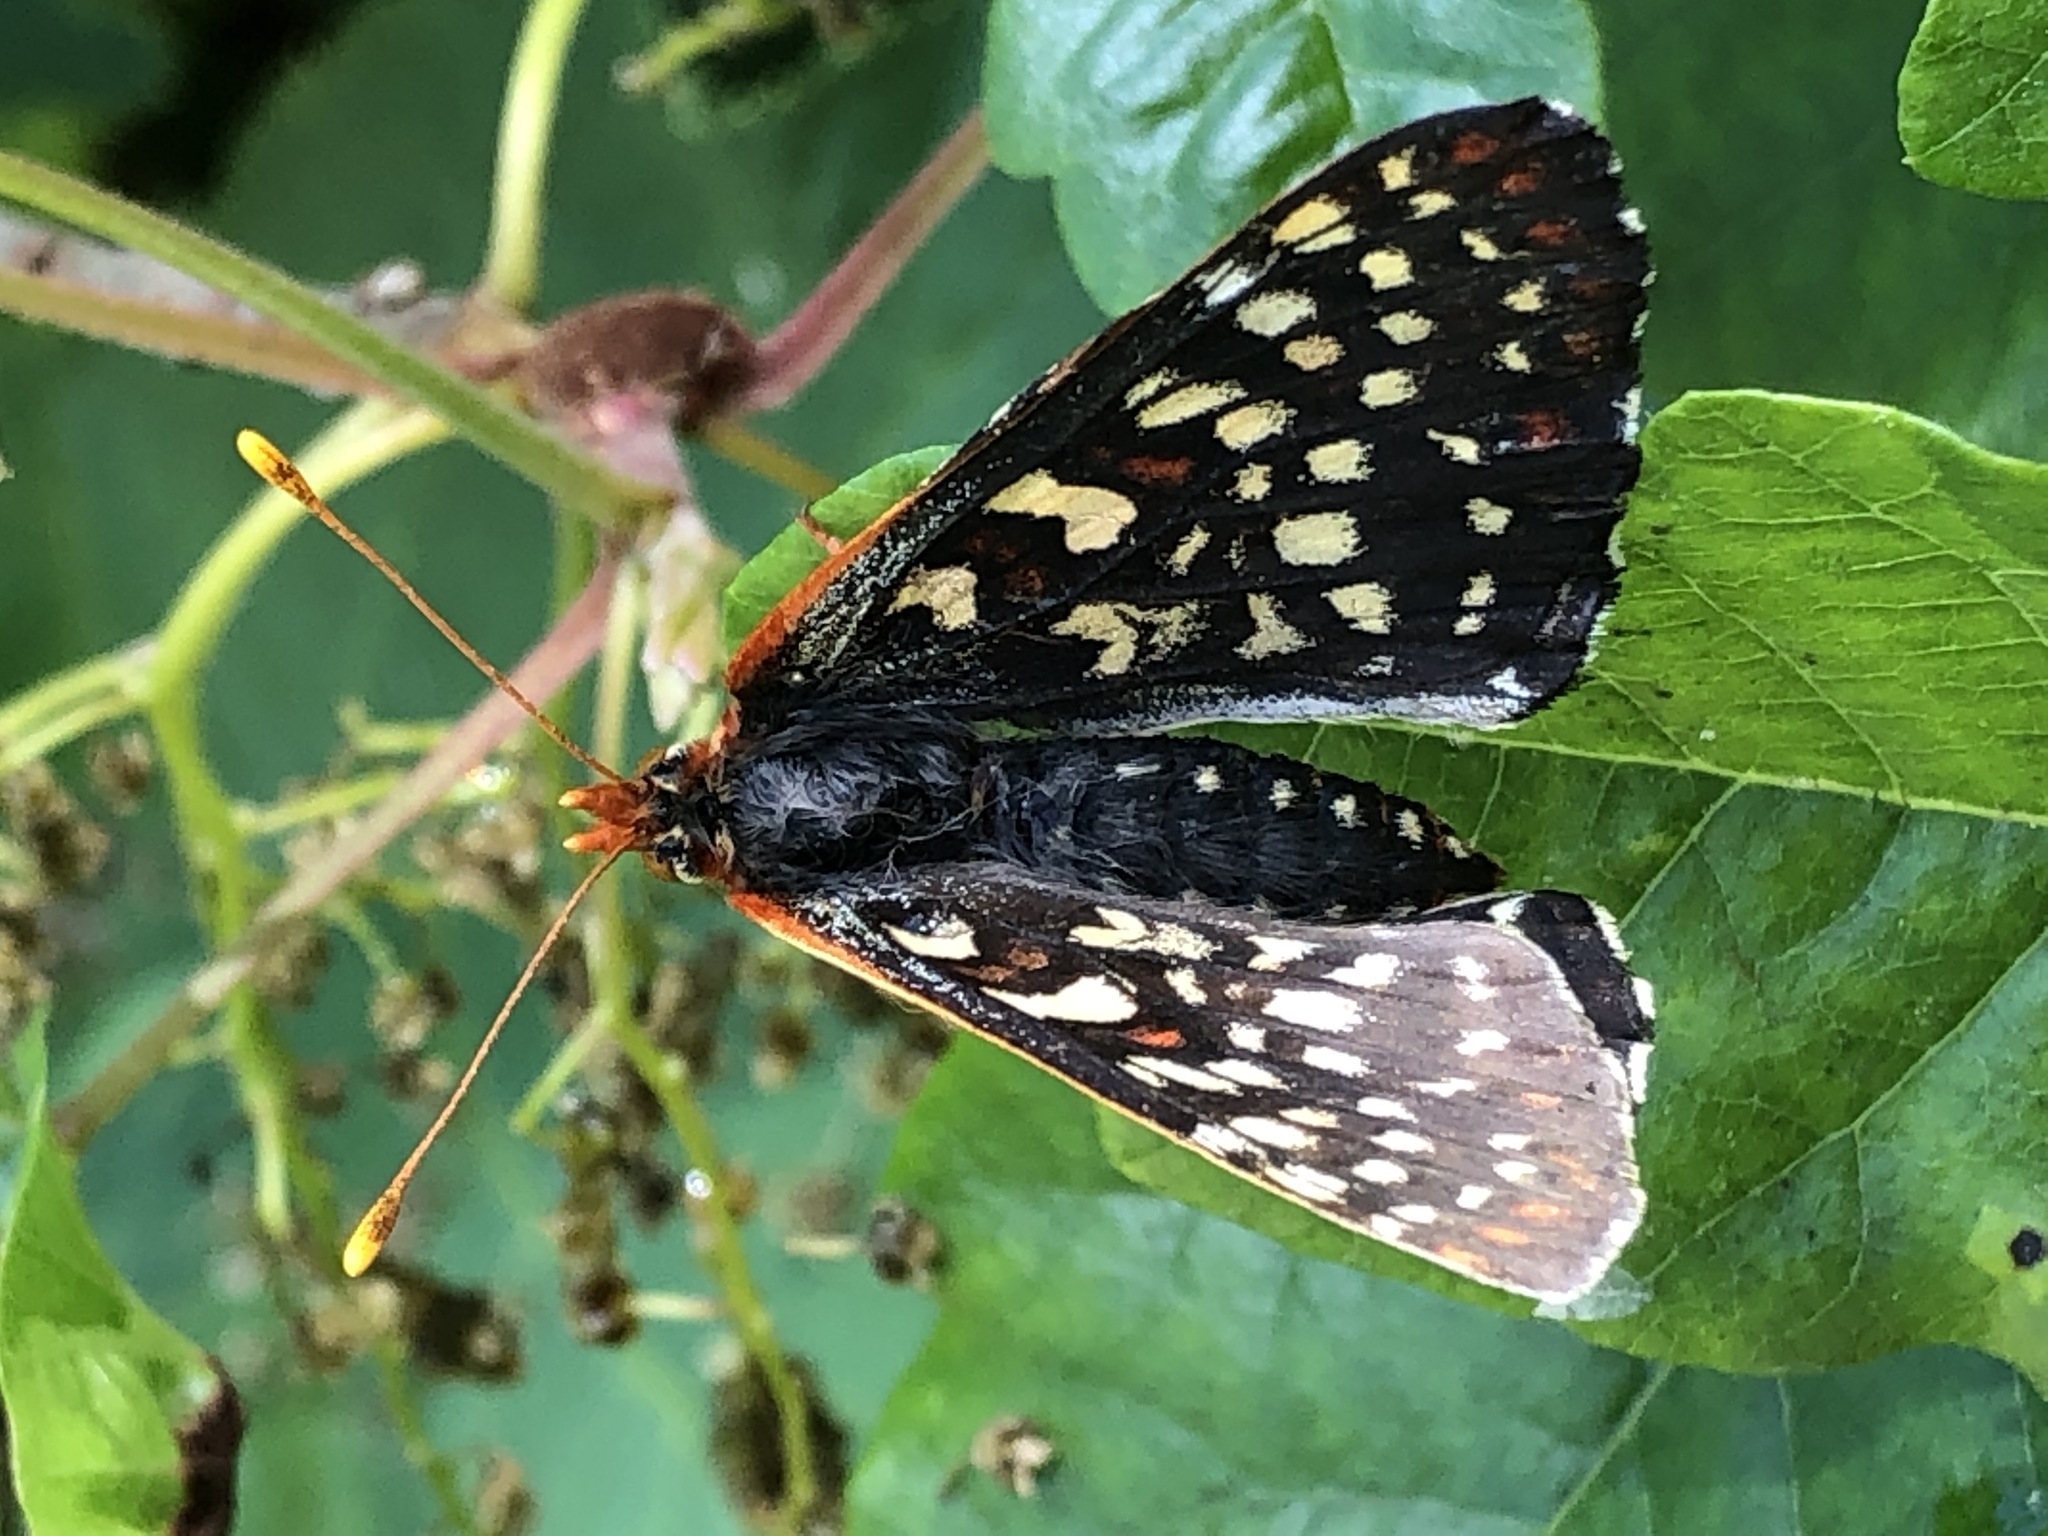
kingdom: Animalia
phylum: Arthropoda
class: Insecta
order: Lepidoptera
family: Nymphalidae
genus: Occidryas
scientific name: Occidryas chalcedona
